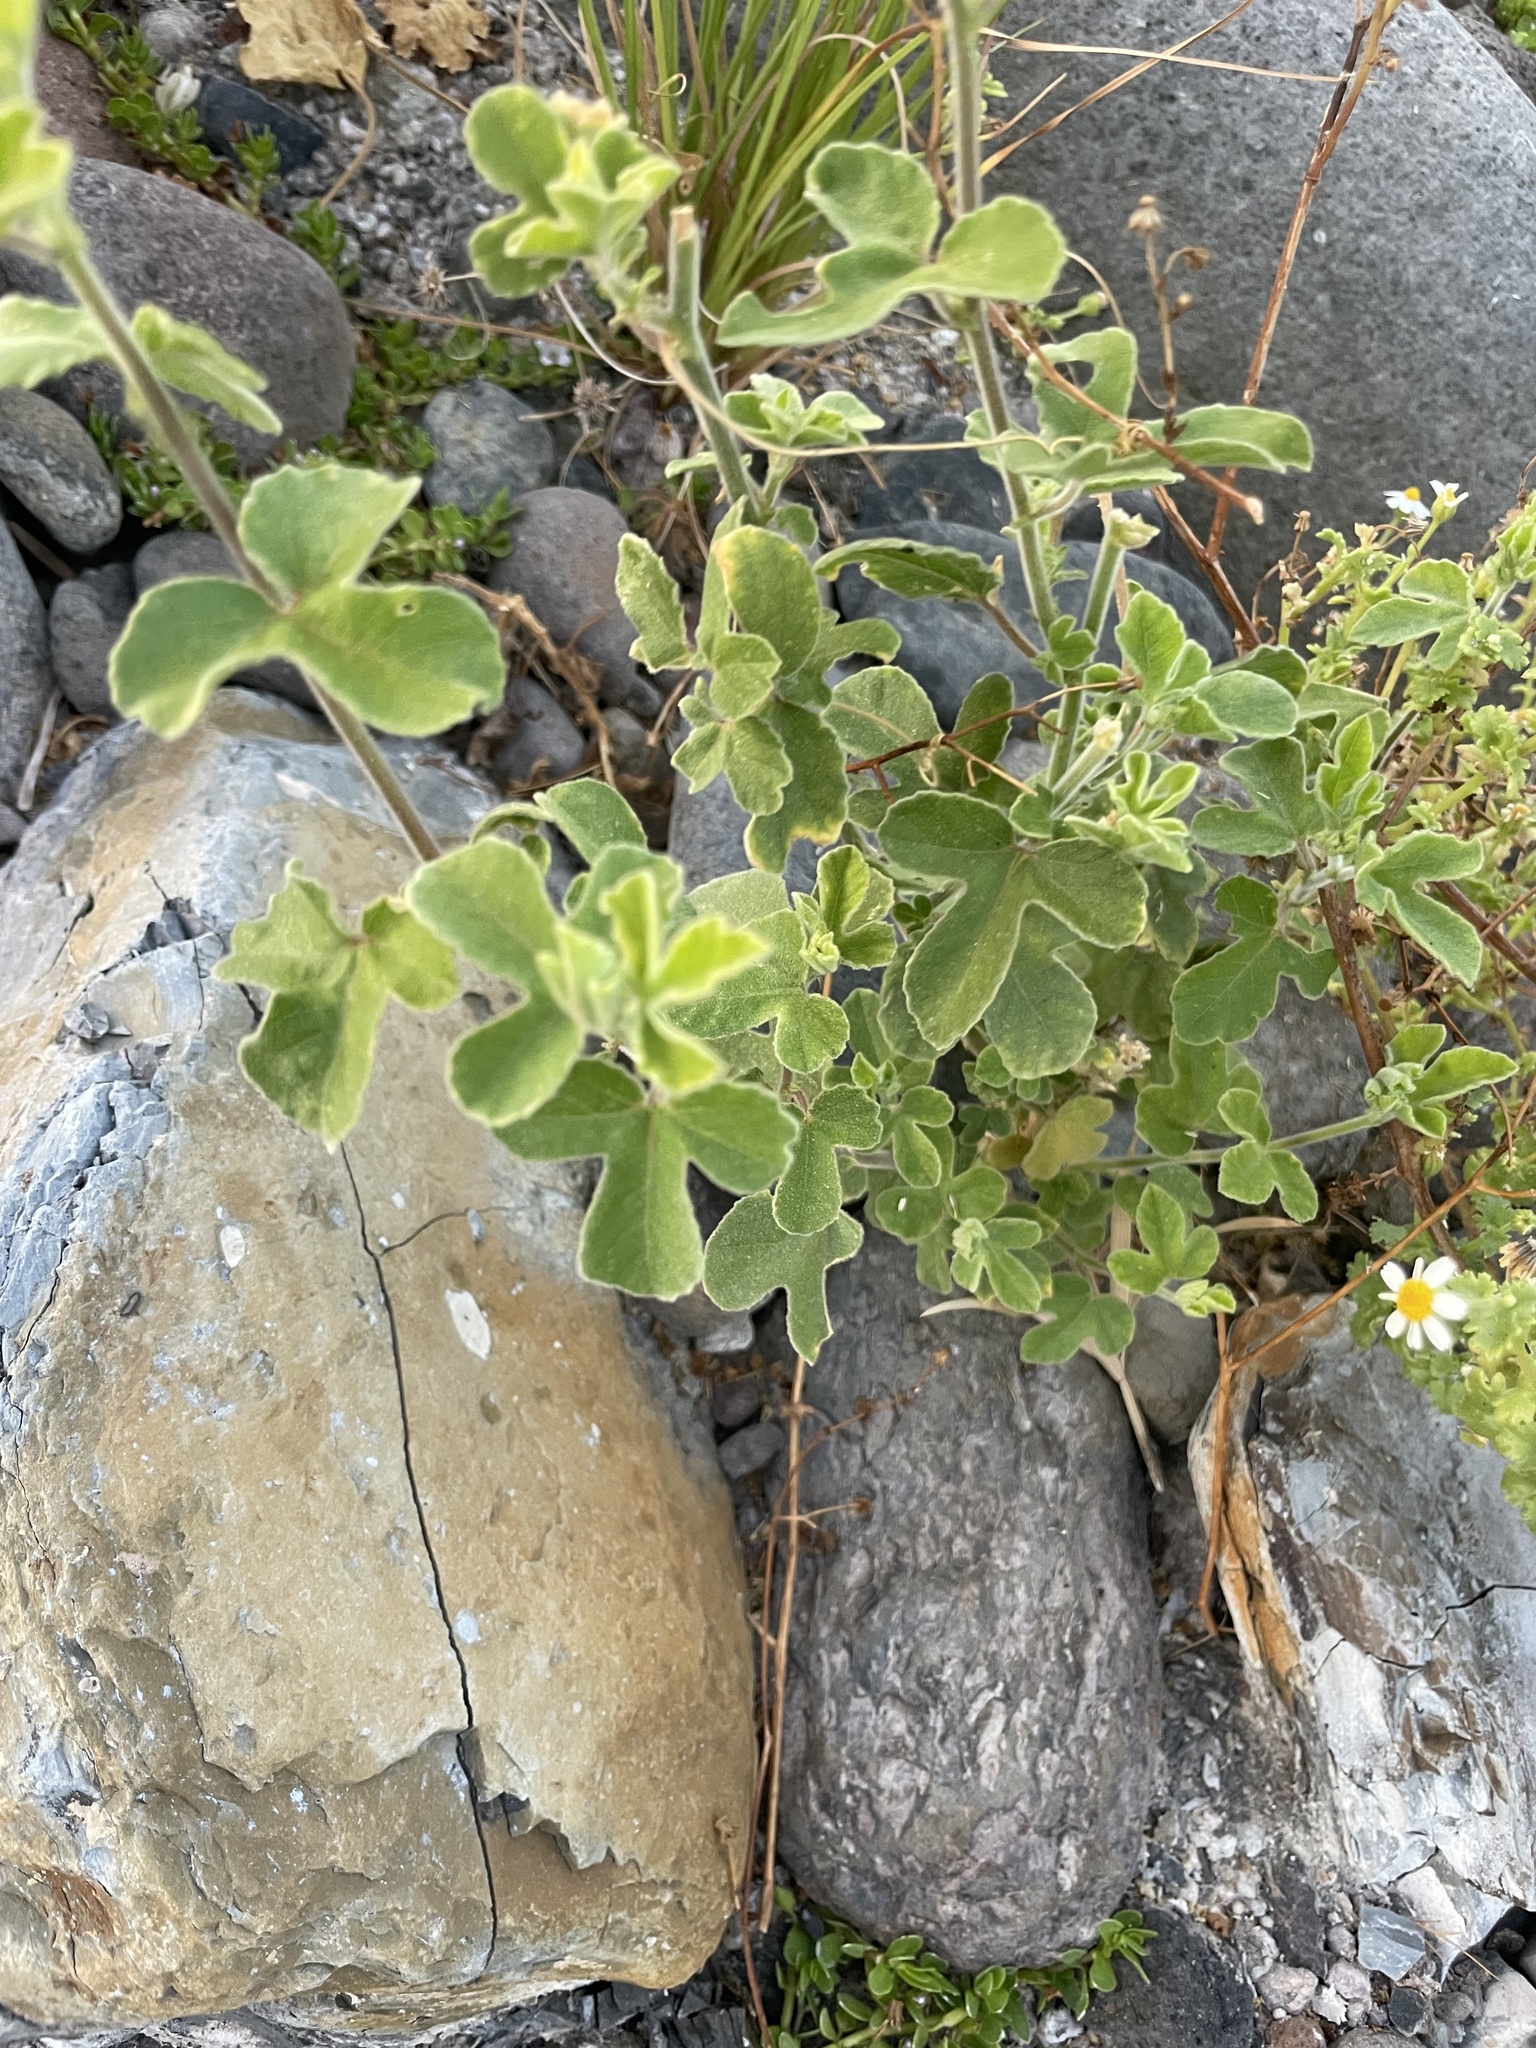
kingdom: Plantae
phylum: Tracheophyta
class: Magnoliopsida
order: Malpighiales
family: Passifloraceae
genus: Passiflora
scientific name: Passiflora arida
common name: Desert passionflower
